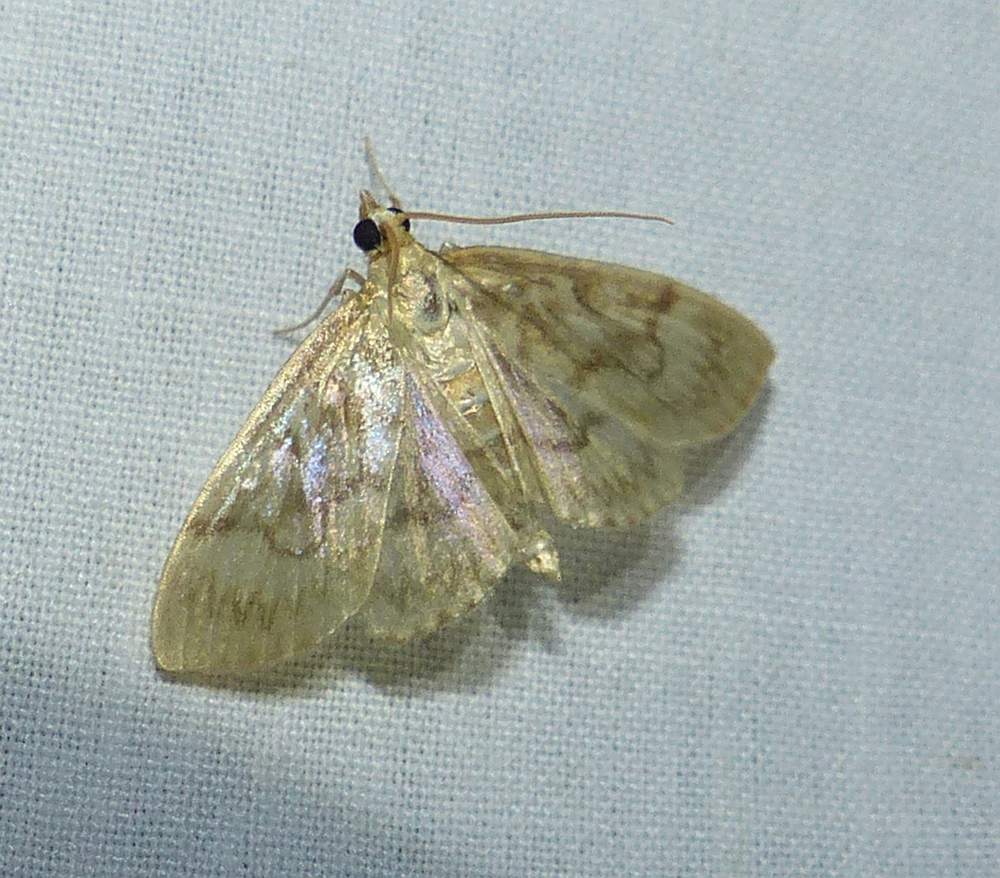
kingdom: Animalia
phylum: Arthropoda
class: Insecta
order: Lepidoptera
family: Crambidae
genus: Crocidophora
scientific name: Crocidophora serratissimalis
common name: Saw-toothed crocidophora moth
